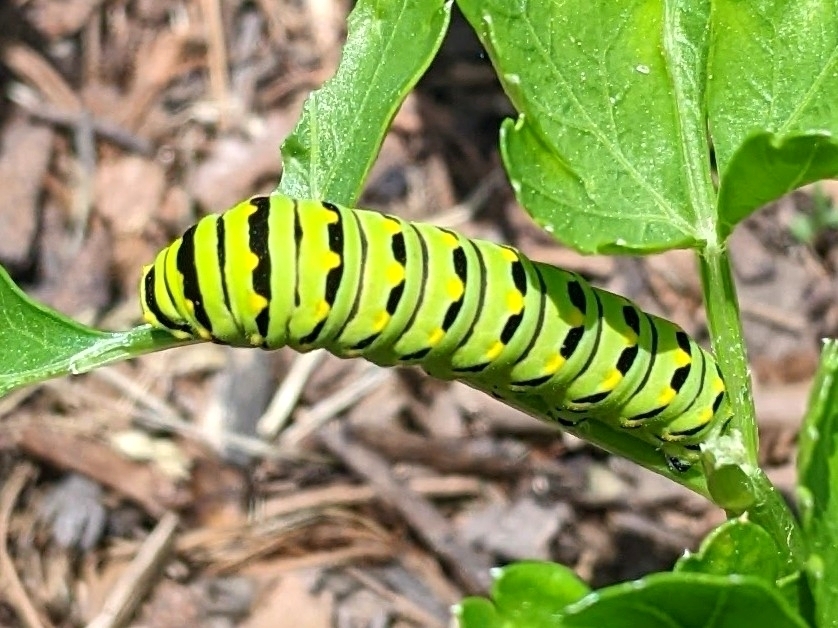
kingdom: Animalia
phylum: Arthropoda
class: Insecta
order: Lepidoptera
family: Papilionidae
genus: Papilio
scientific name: Papilio polyxenes
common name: Black swallowtail
